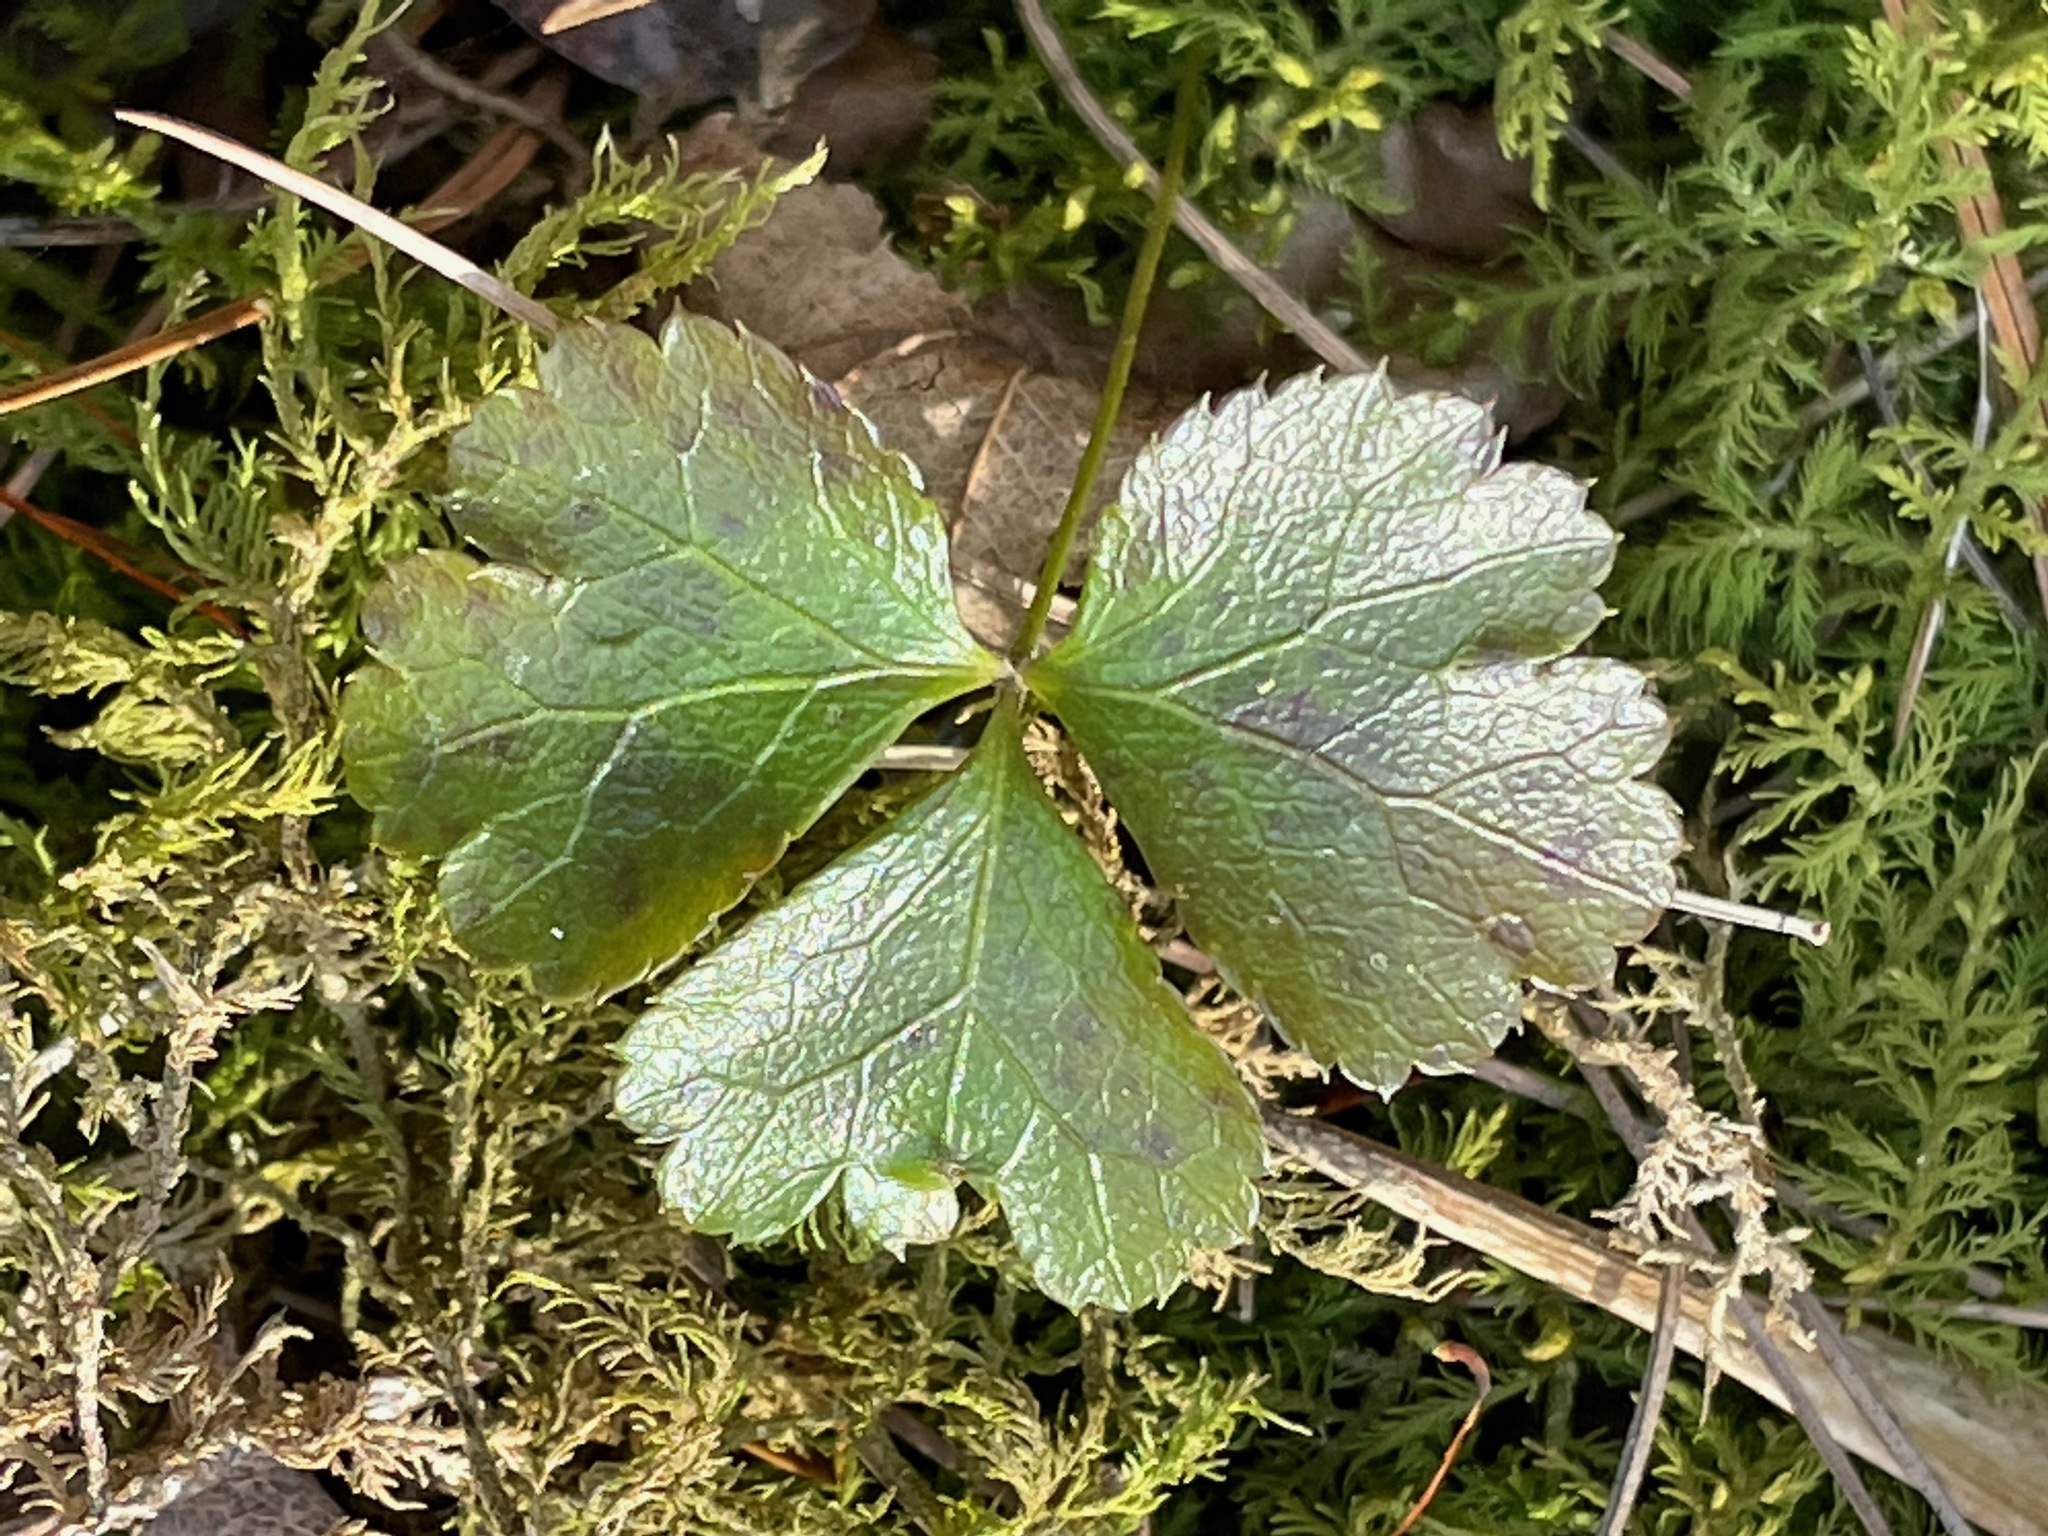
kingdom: Plantae
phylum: Tracheophyta
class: Magnoliopsida
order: Ranunculales
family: Ranunculaceae
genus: Coptis
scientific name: Coptis trifolia
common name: Canker-root
